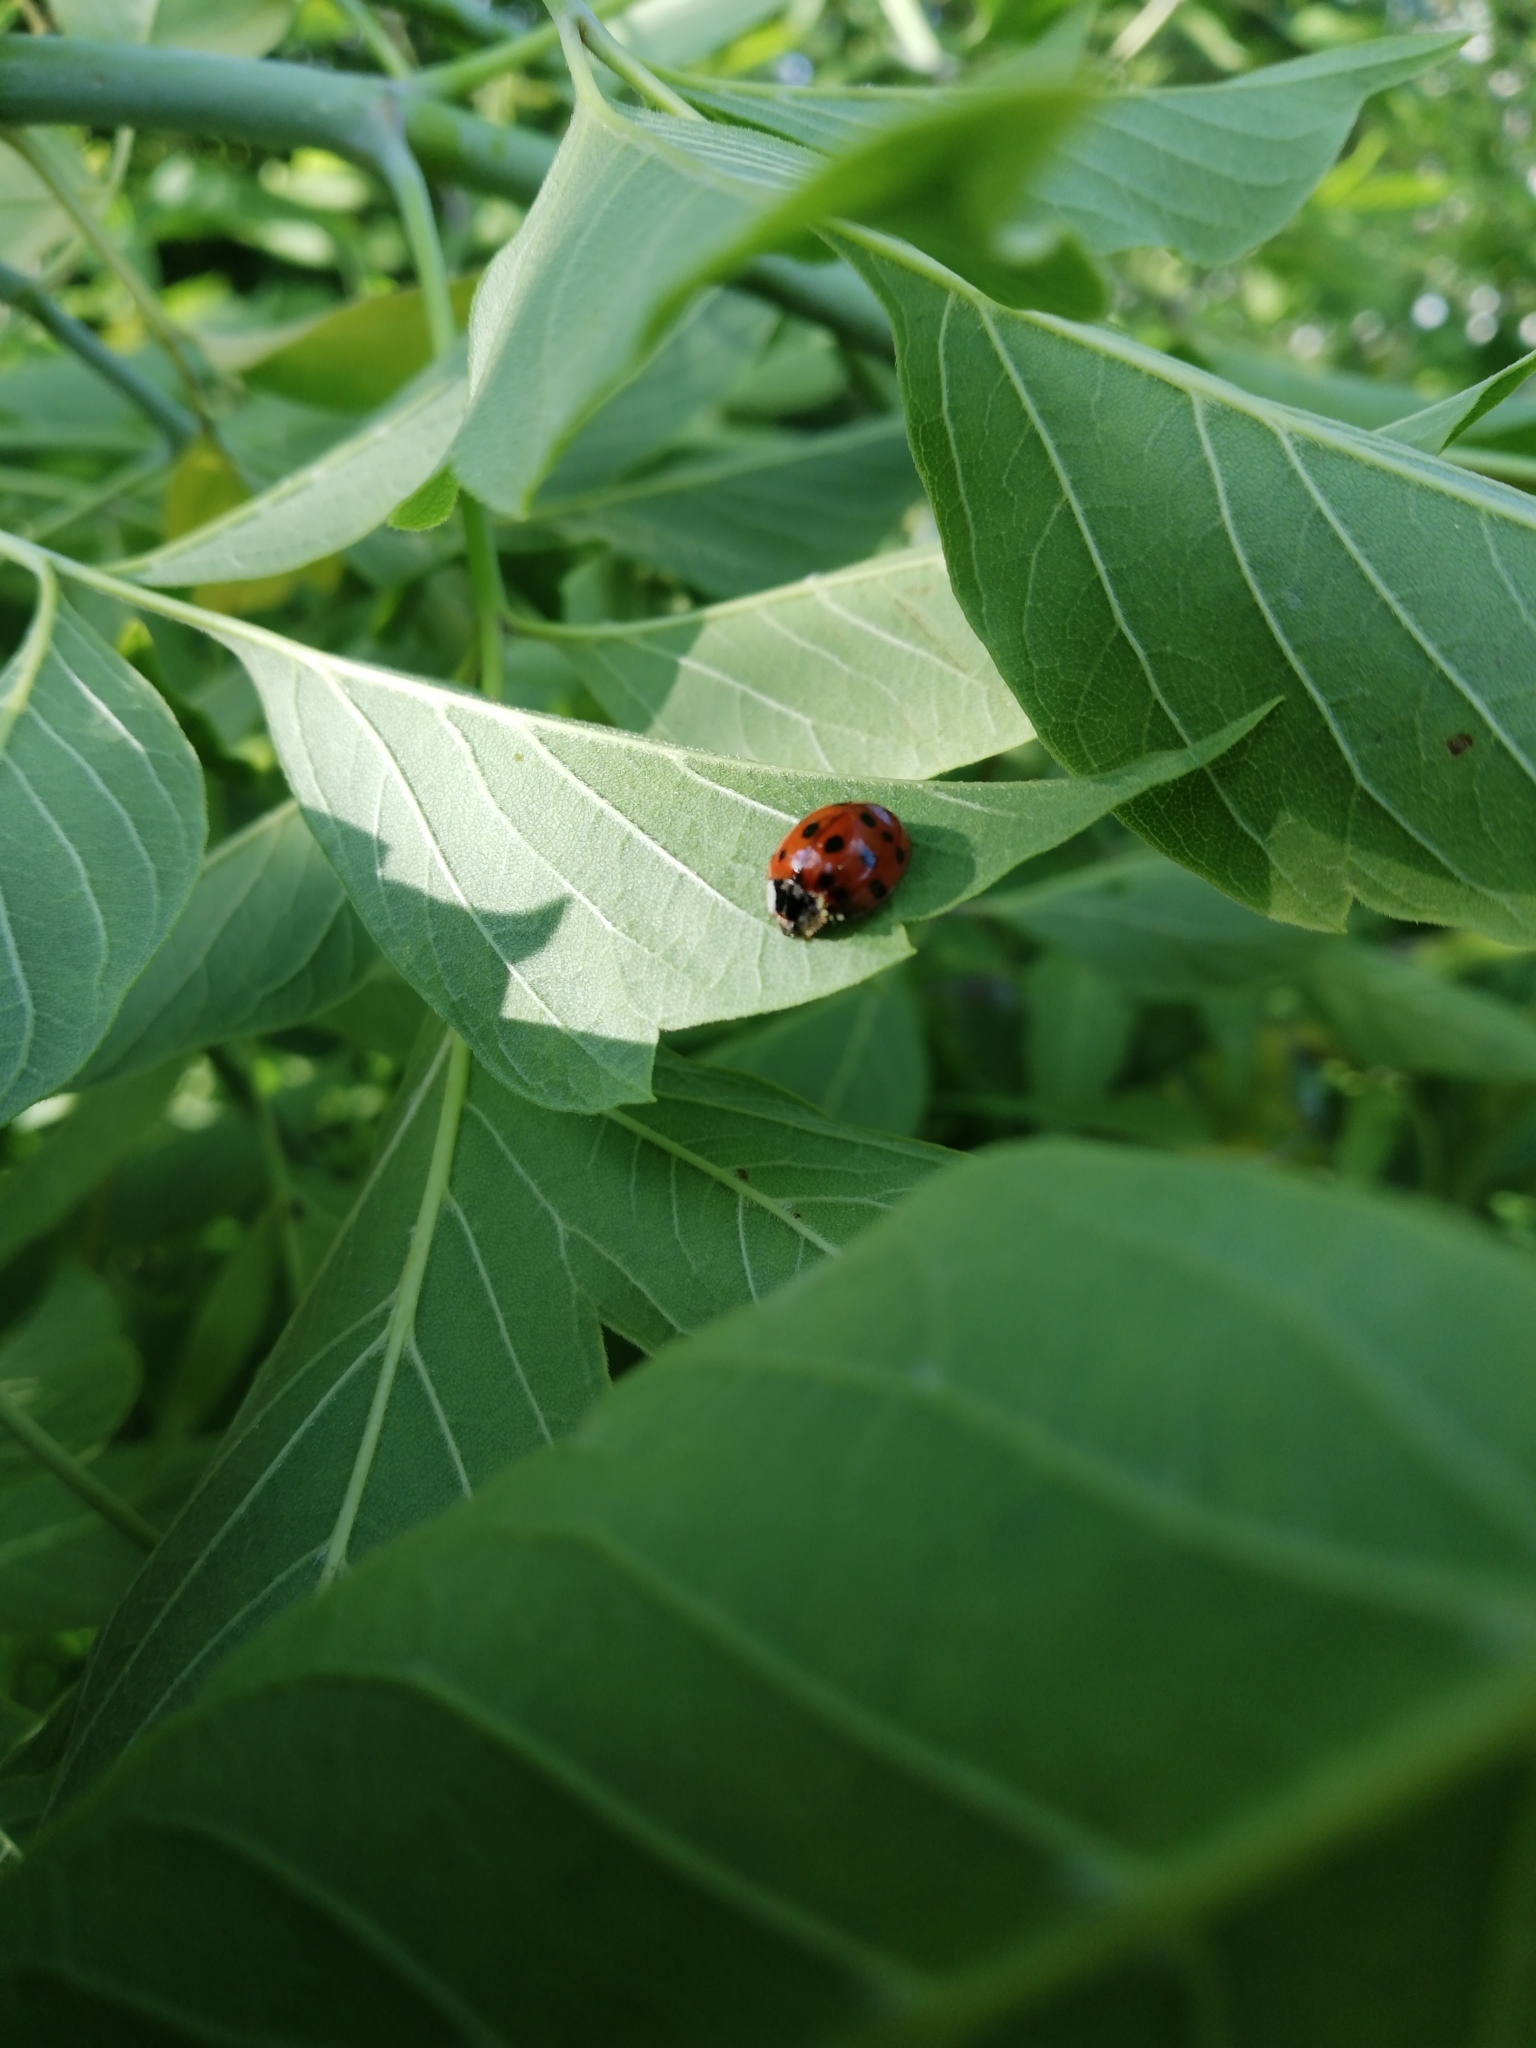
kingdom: Animalia
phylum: Arthropoda
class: Insecta
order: Coleoptera
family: Coccinellidae
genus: Harmonia
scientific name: Harmonia axyridis
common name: Harlequin ladybird
